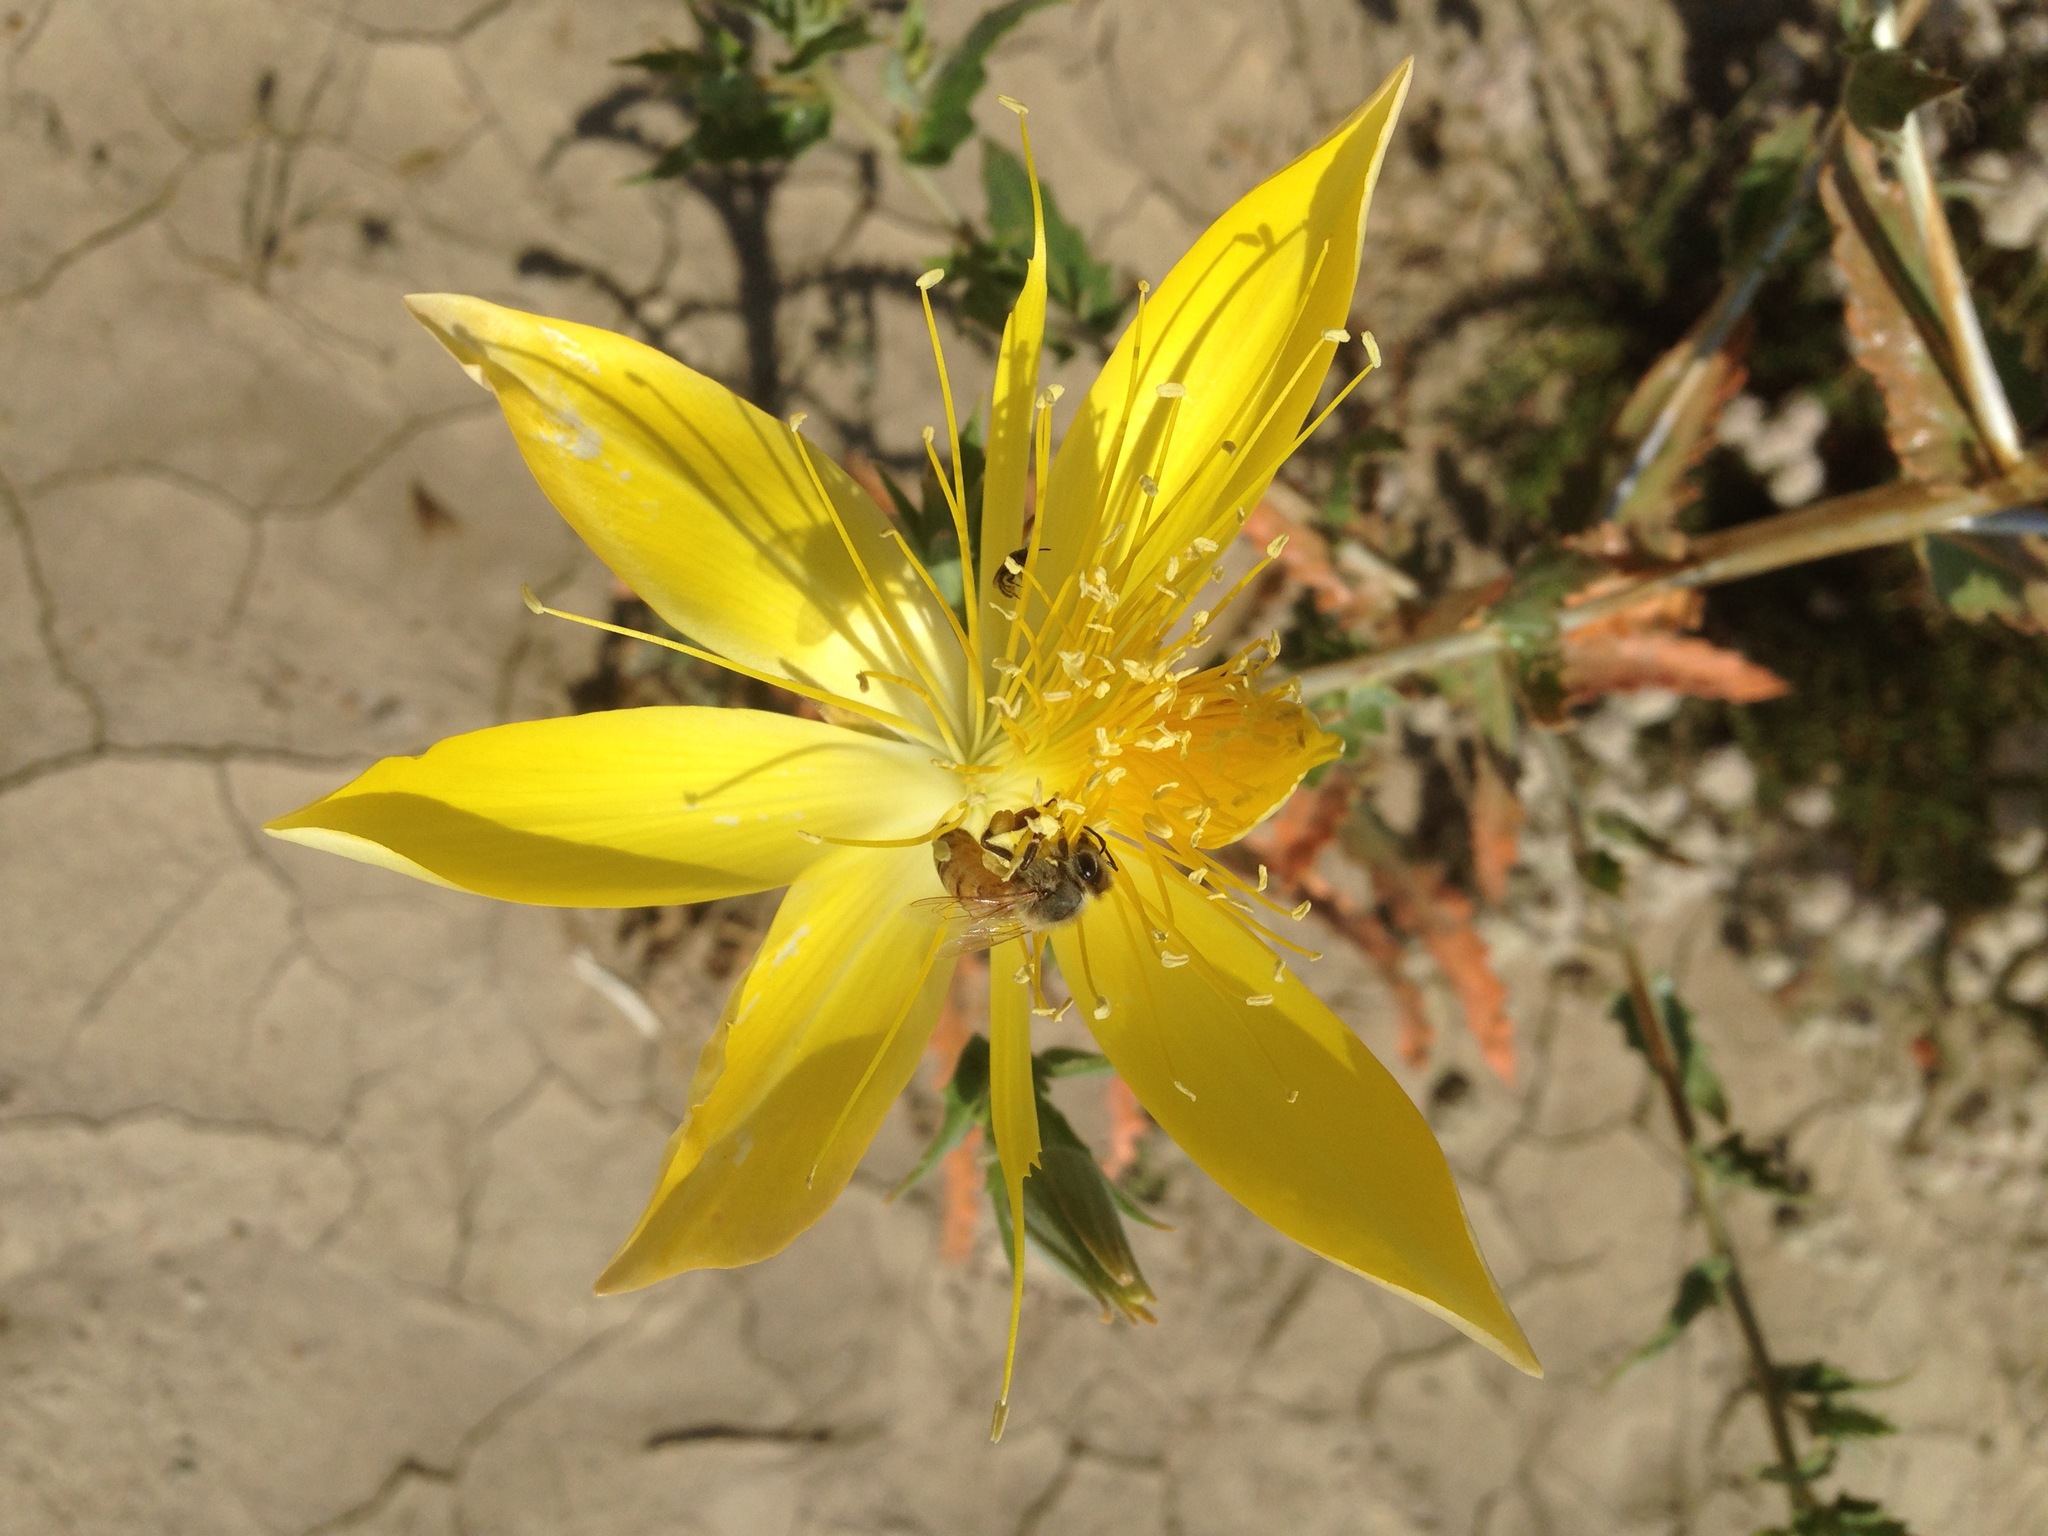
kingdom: Plantae
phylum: Tracheophyta
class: Magnoliopsida
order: Cornales
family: Loasaceae
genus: Mentzelia
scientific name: Mentzelia laevicaulis
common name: Smooth-stem blazingstar
